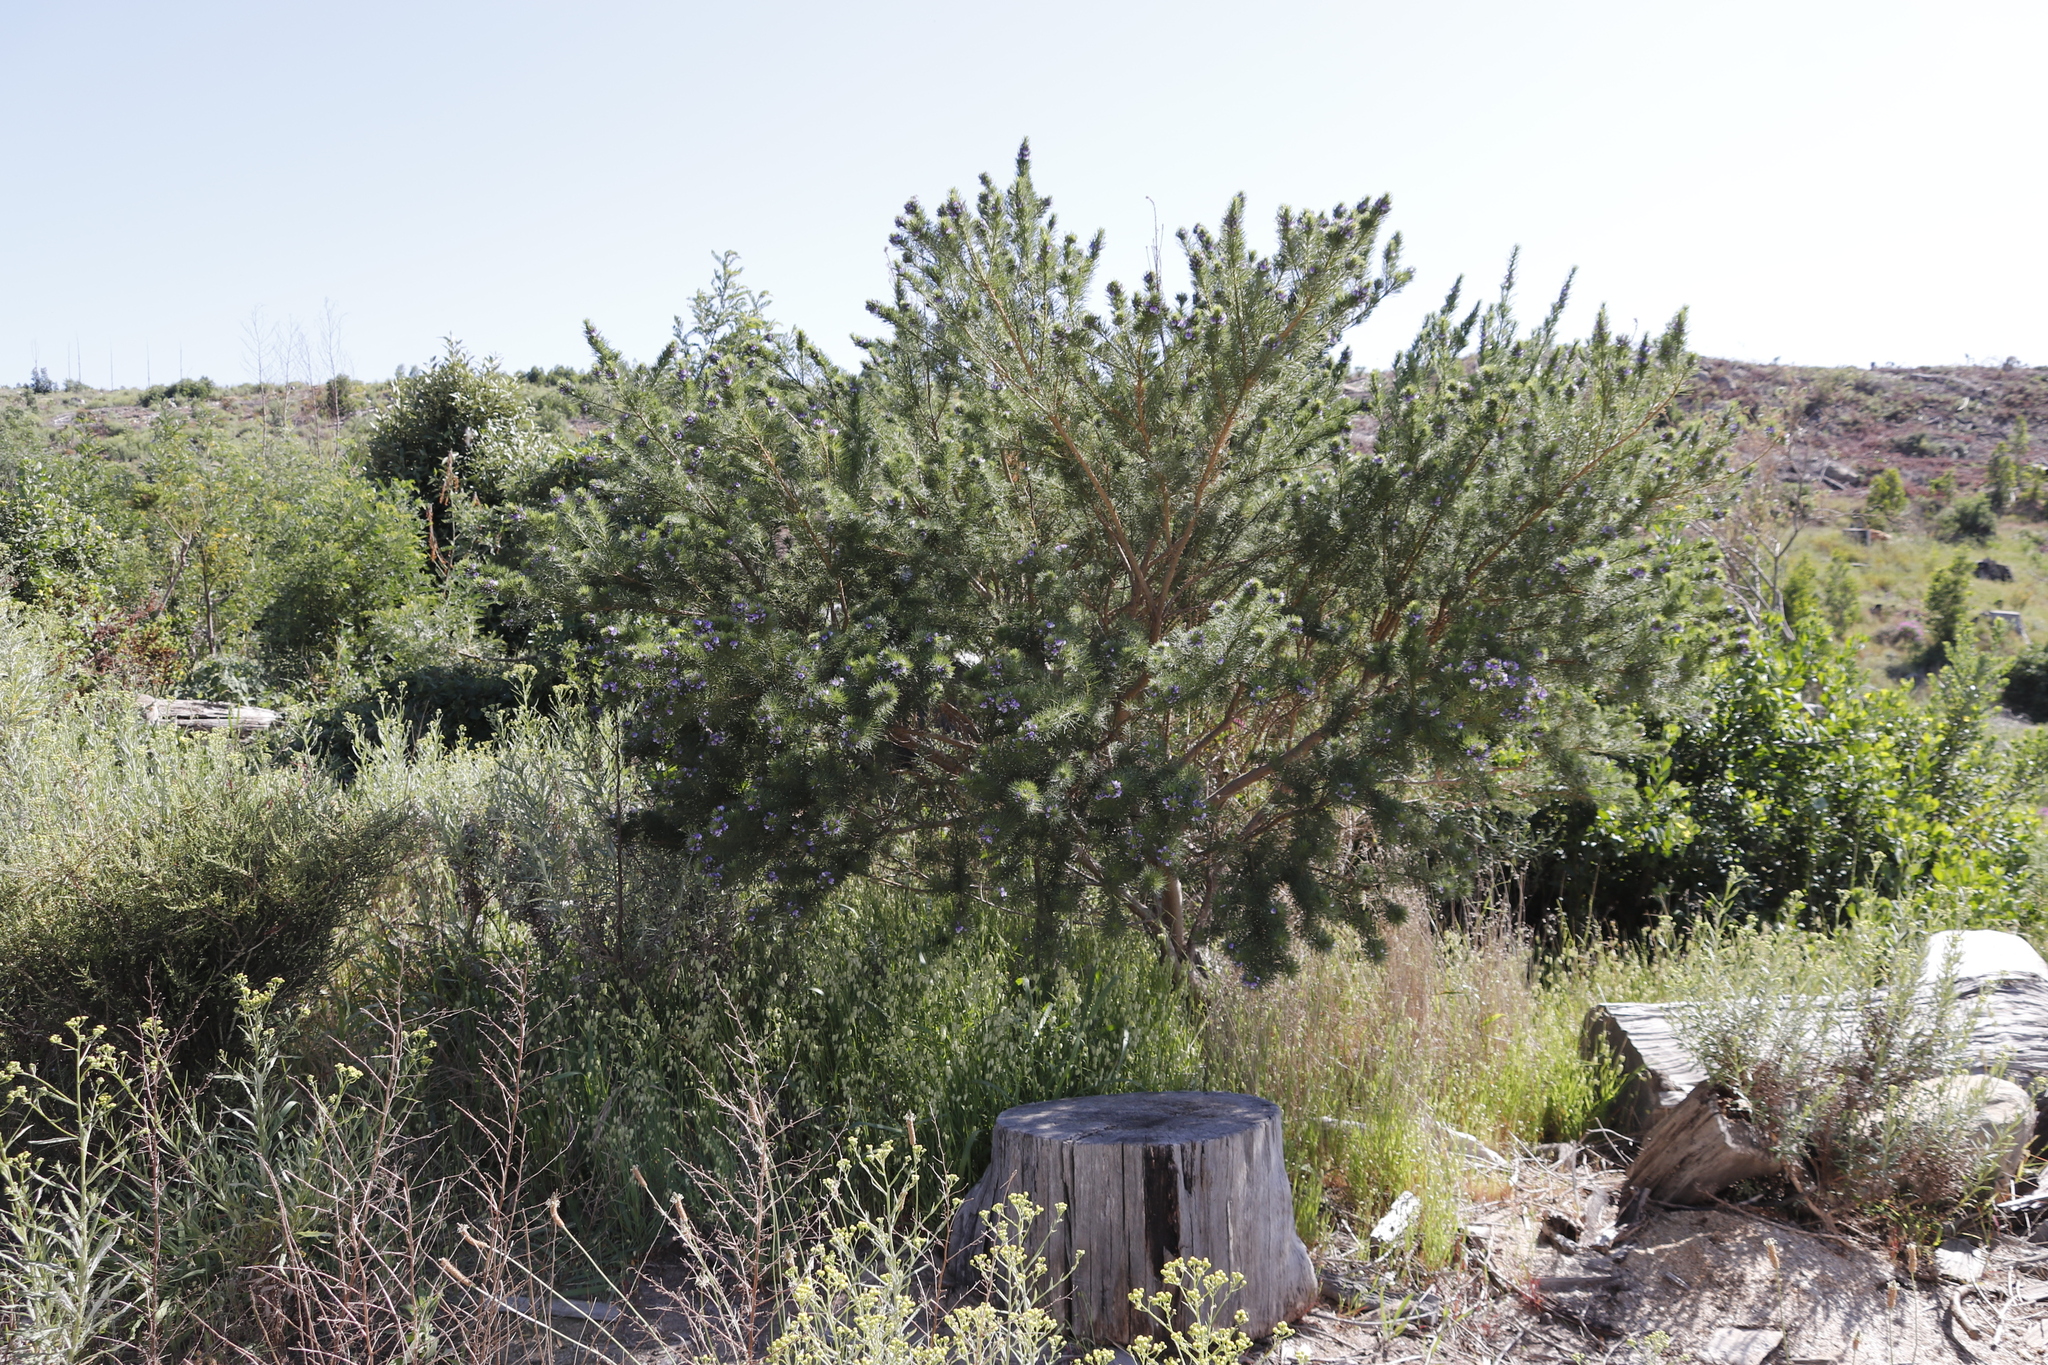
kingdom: Plantae
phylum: Tracheophyta
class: Magnoliopsida
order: Fabales
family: Fabaceae
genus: Psoralea
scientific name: Psoralea pinnata
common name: African scurfpea
